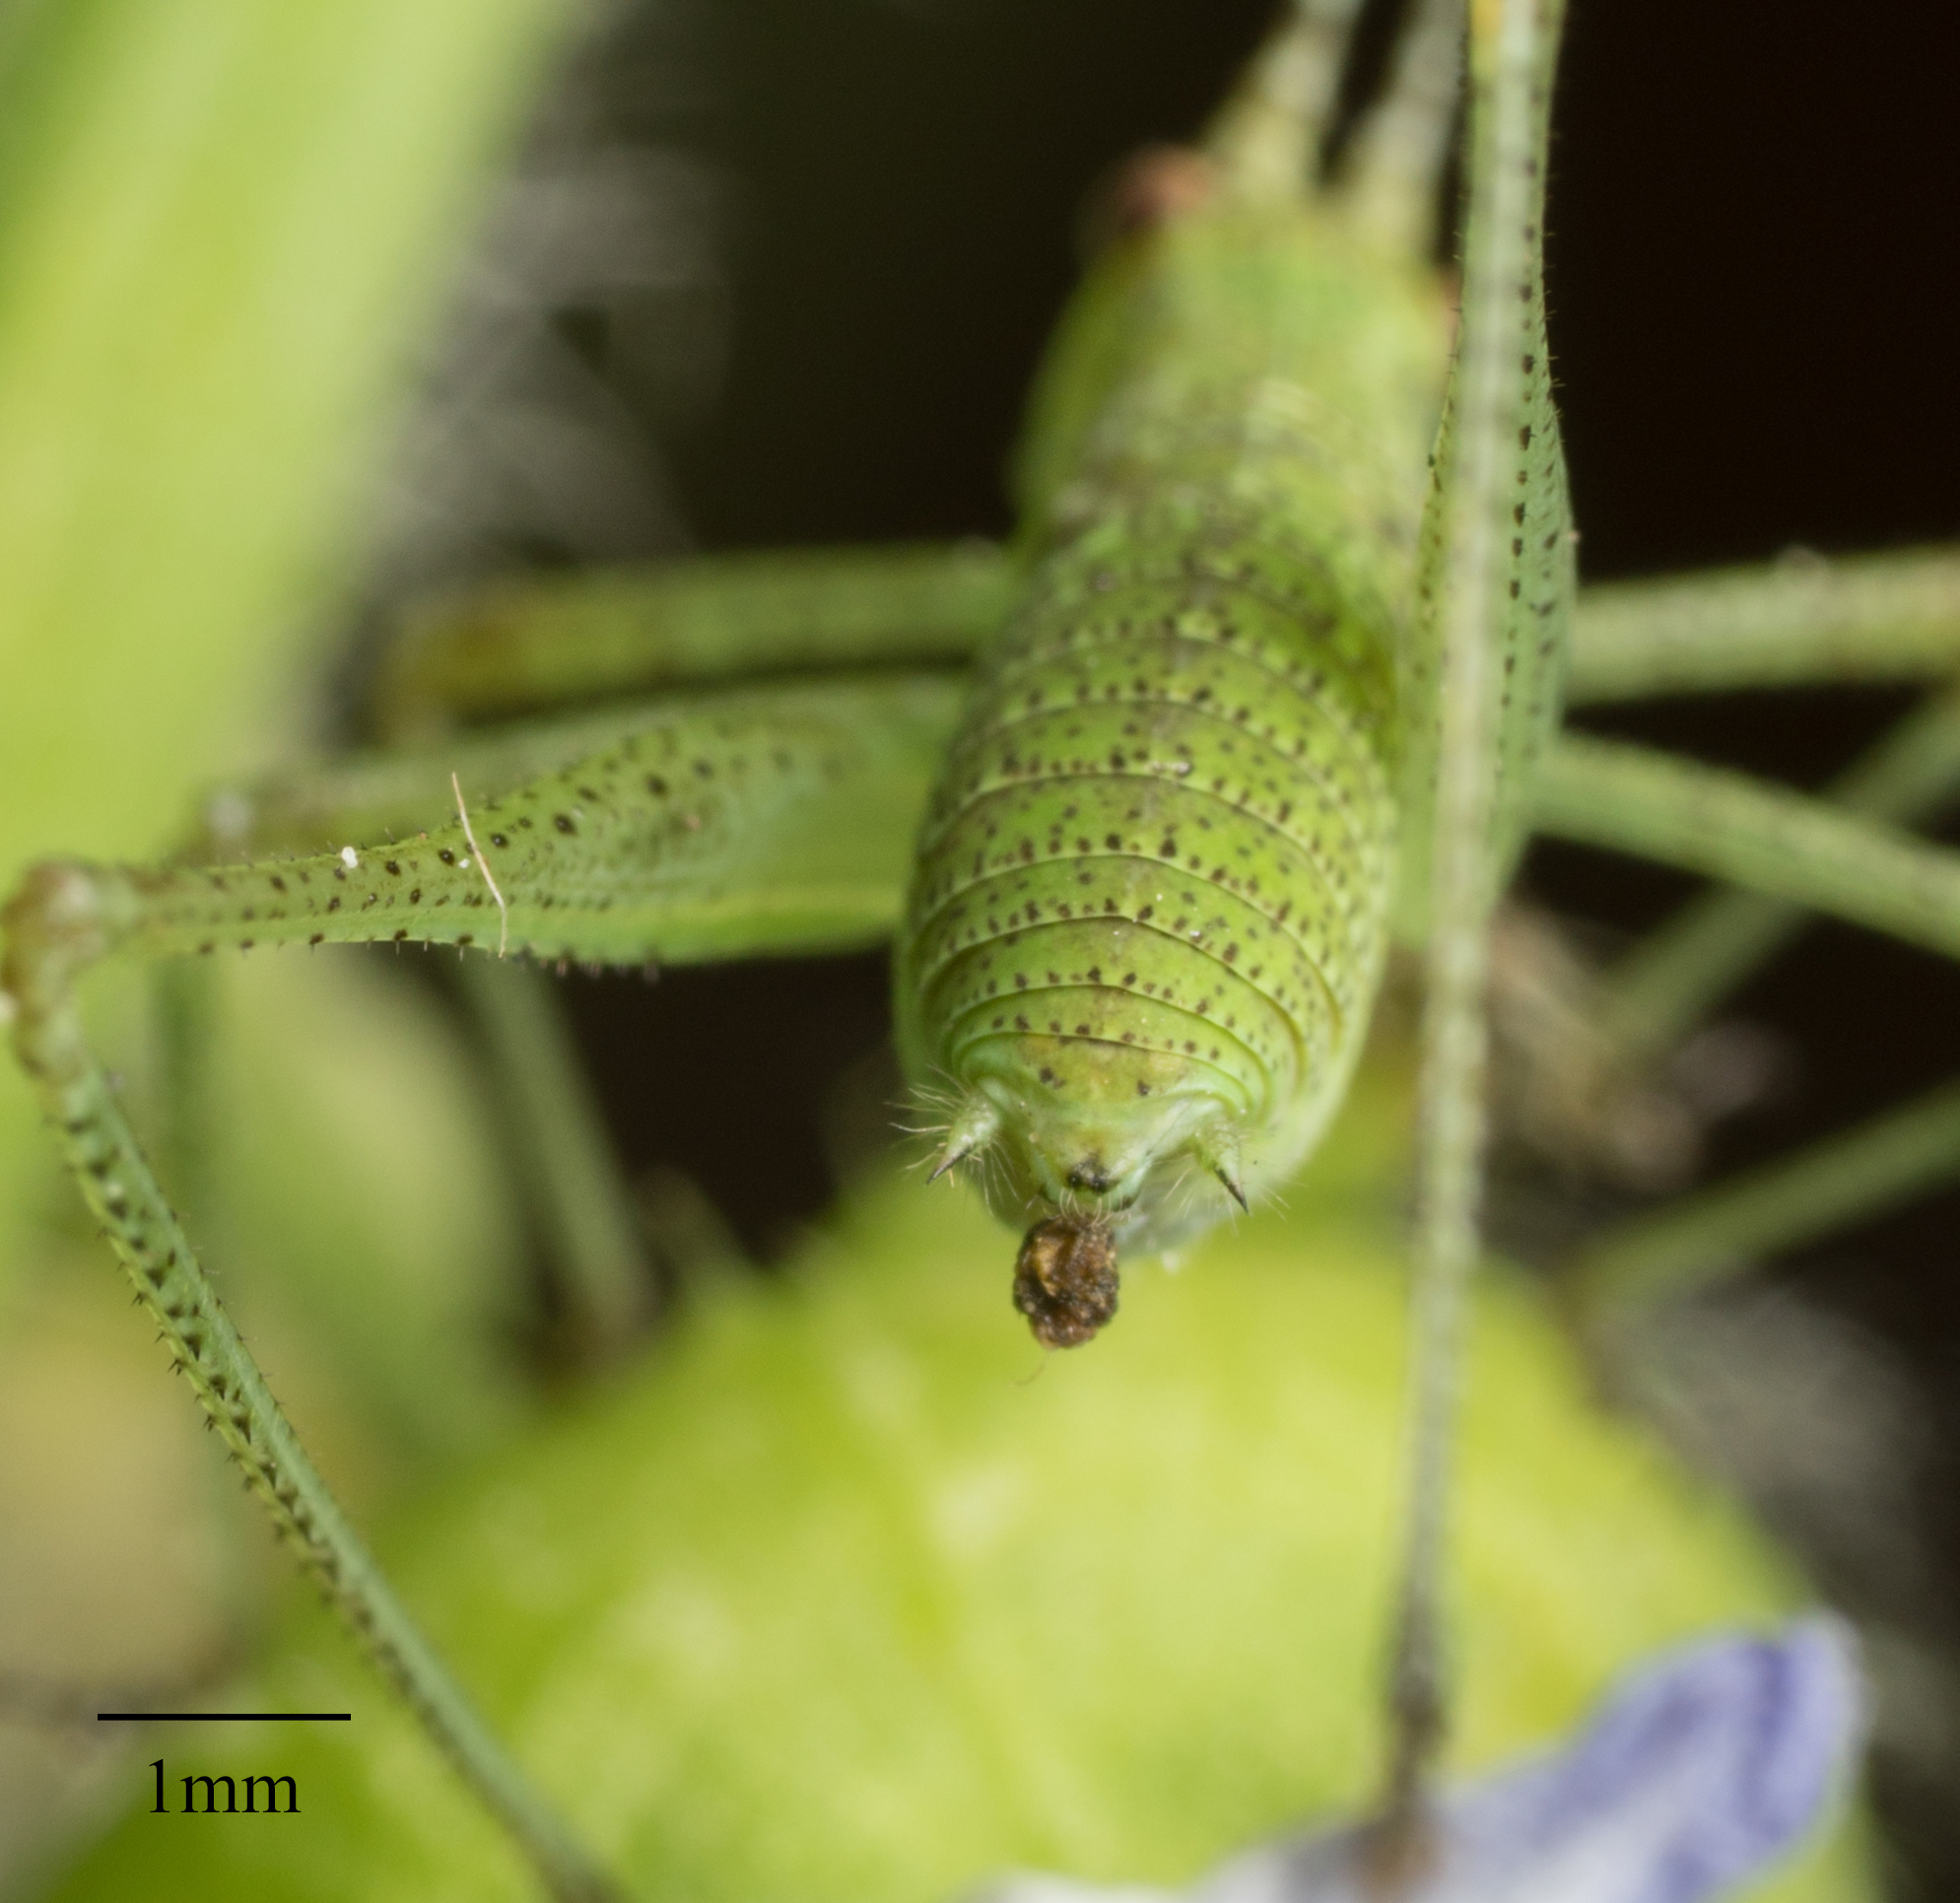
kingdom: Animalia
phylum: Arthropoda
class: Insecta
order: Orthoptera
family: Tettigoniidae
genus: Phaneroptera
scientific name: Phaneroptera nana
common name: Southern sickle bush-cricket
